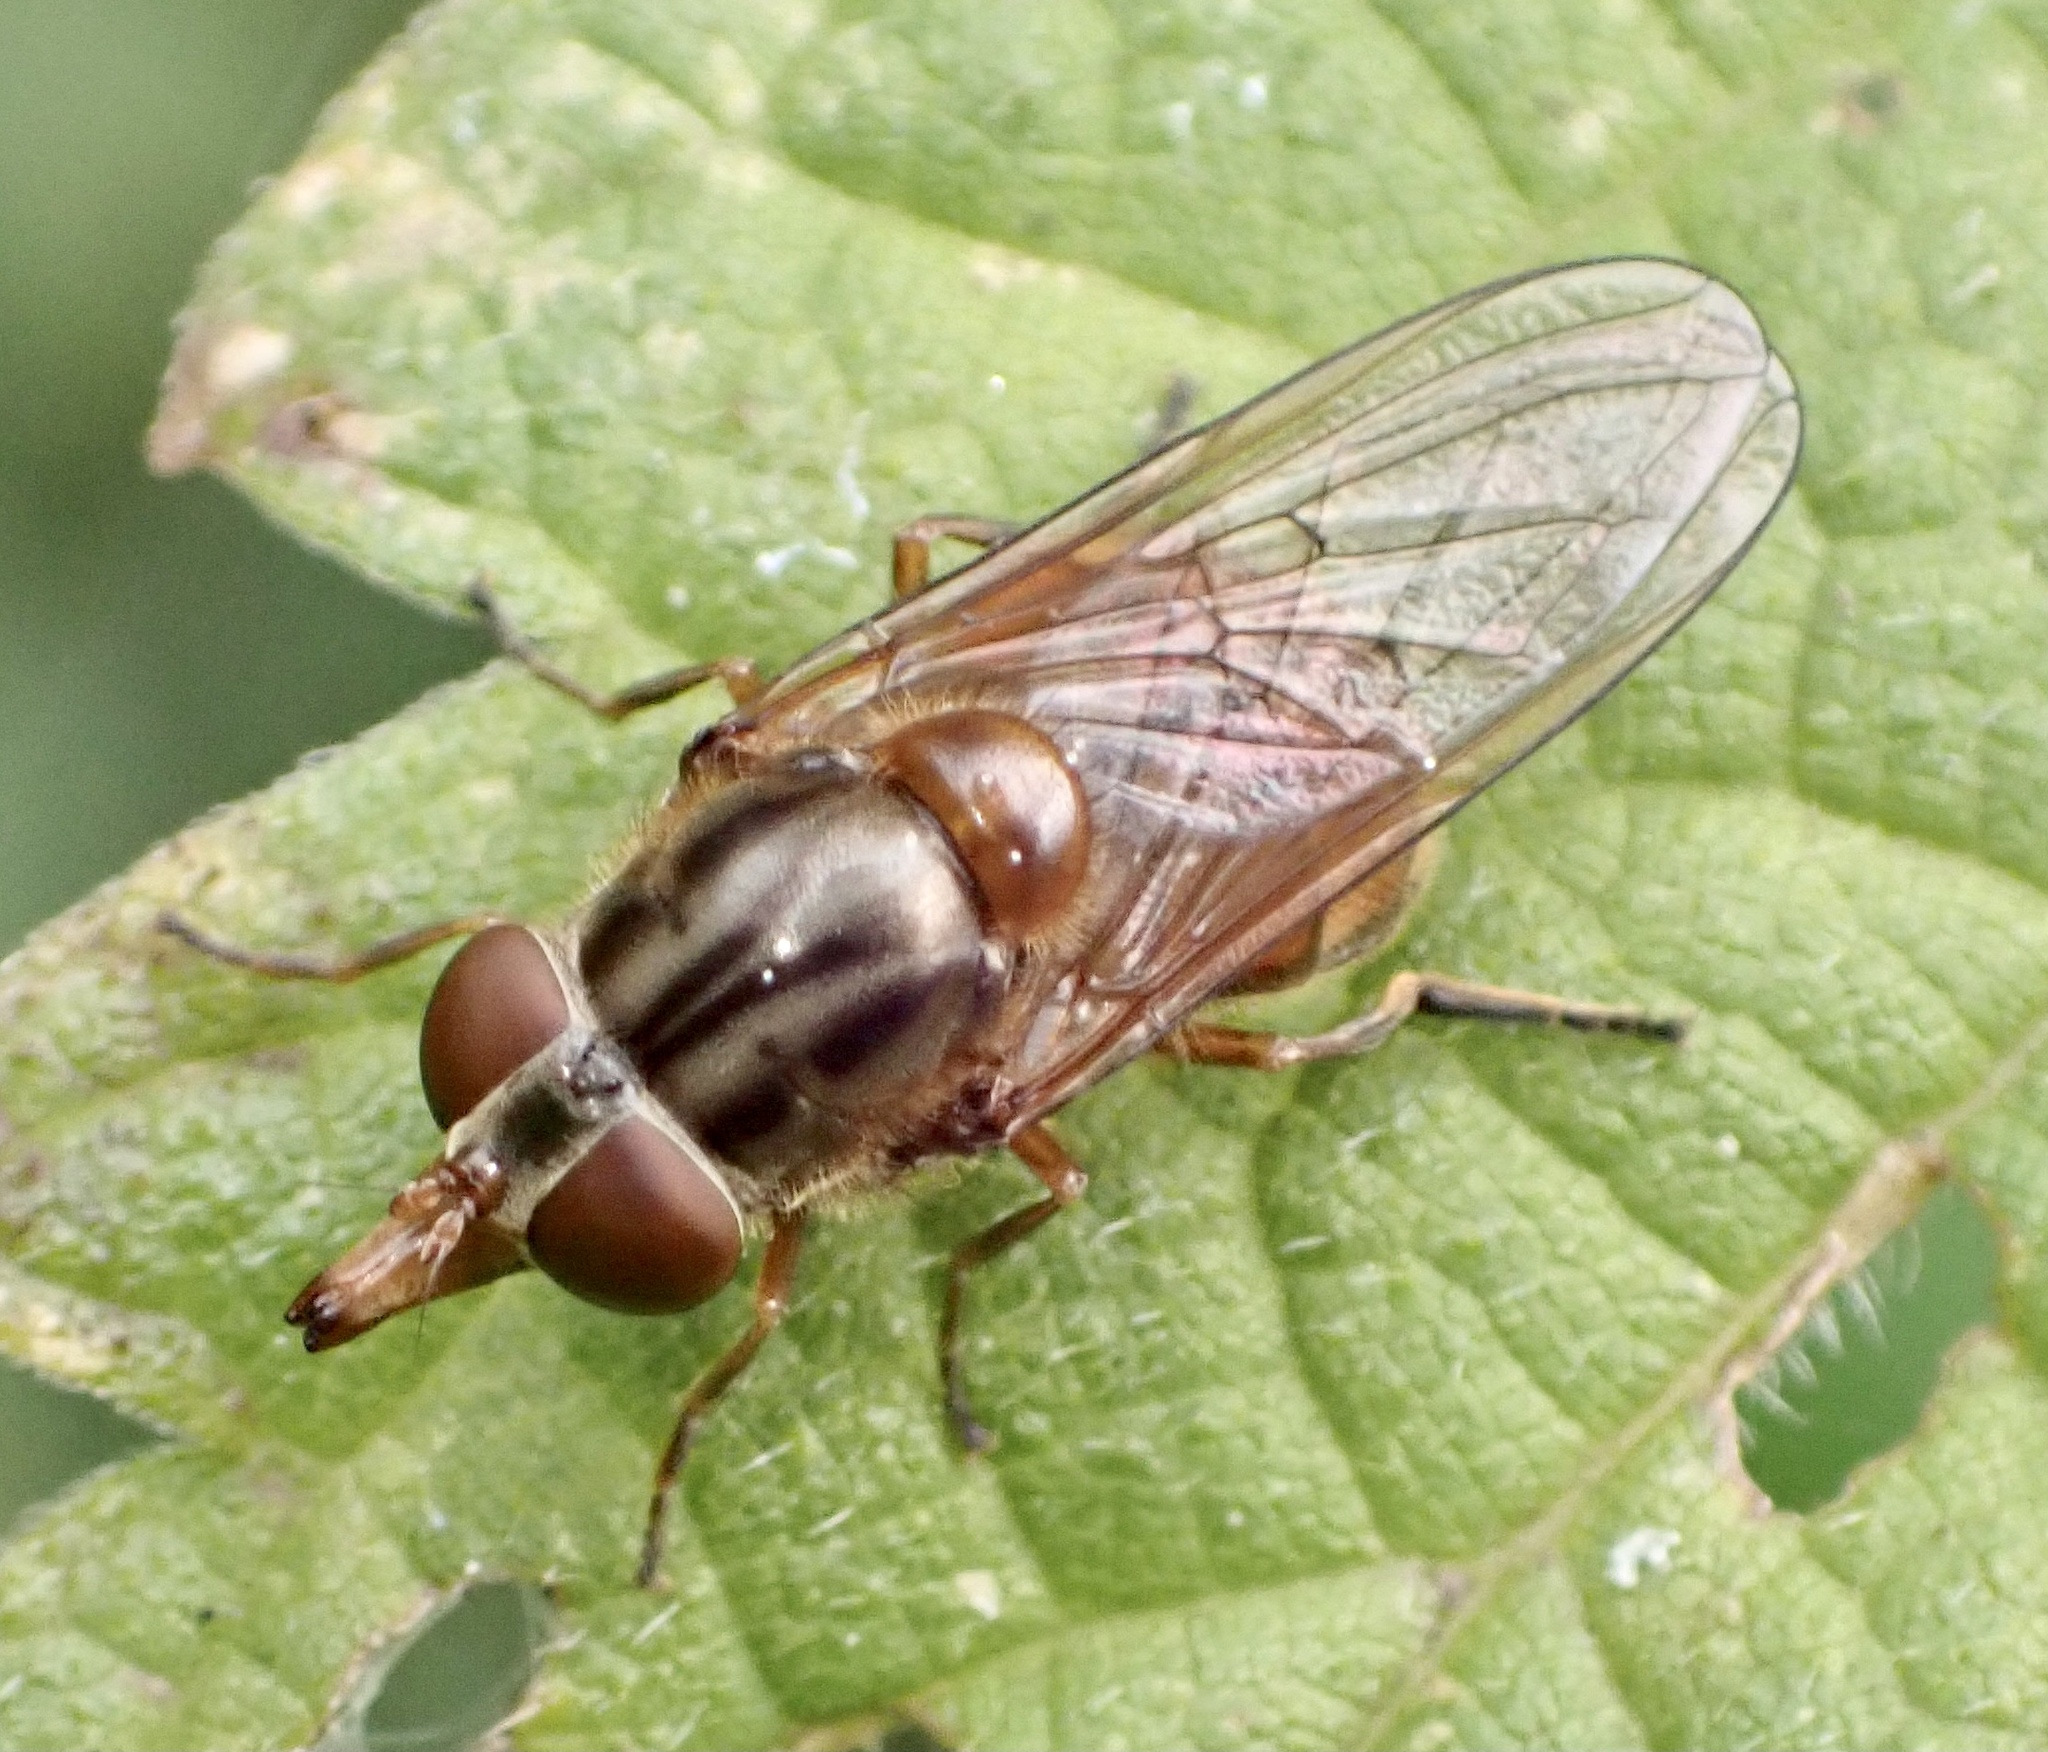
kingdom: Animalia
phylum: Arthropoda
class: Insecta
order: Diptera
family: Syrphidae
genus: Rhingia
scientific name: Rhingia campestris
